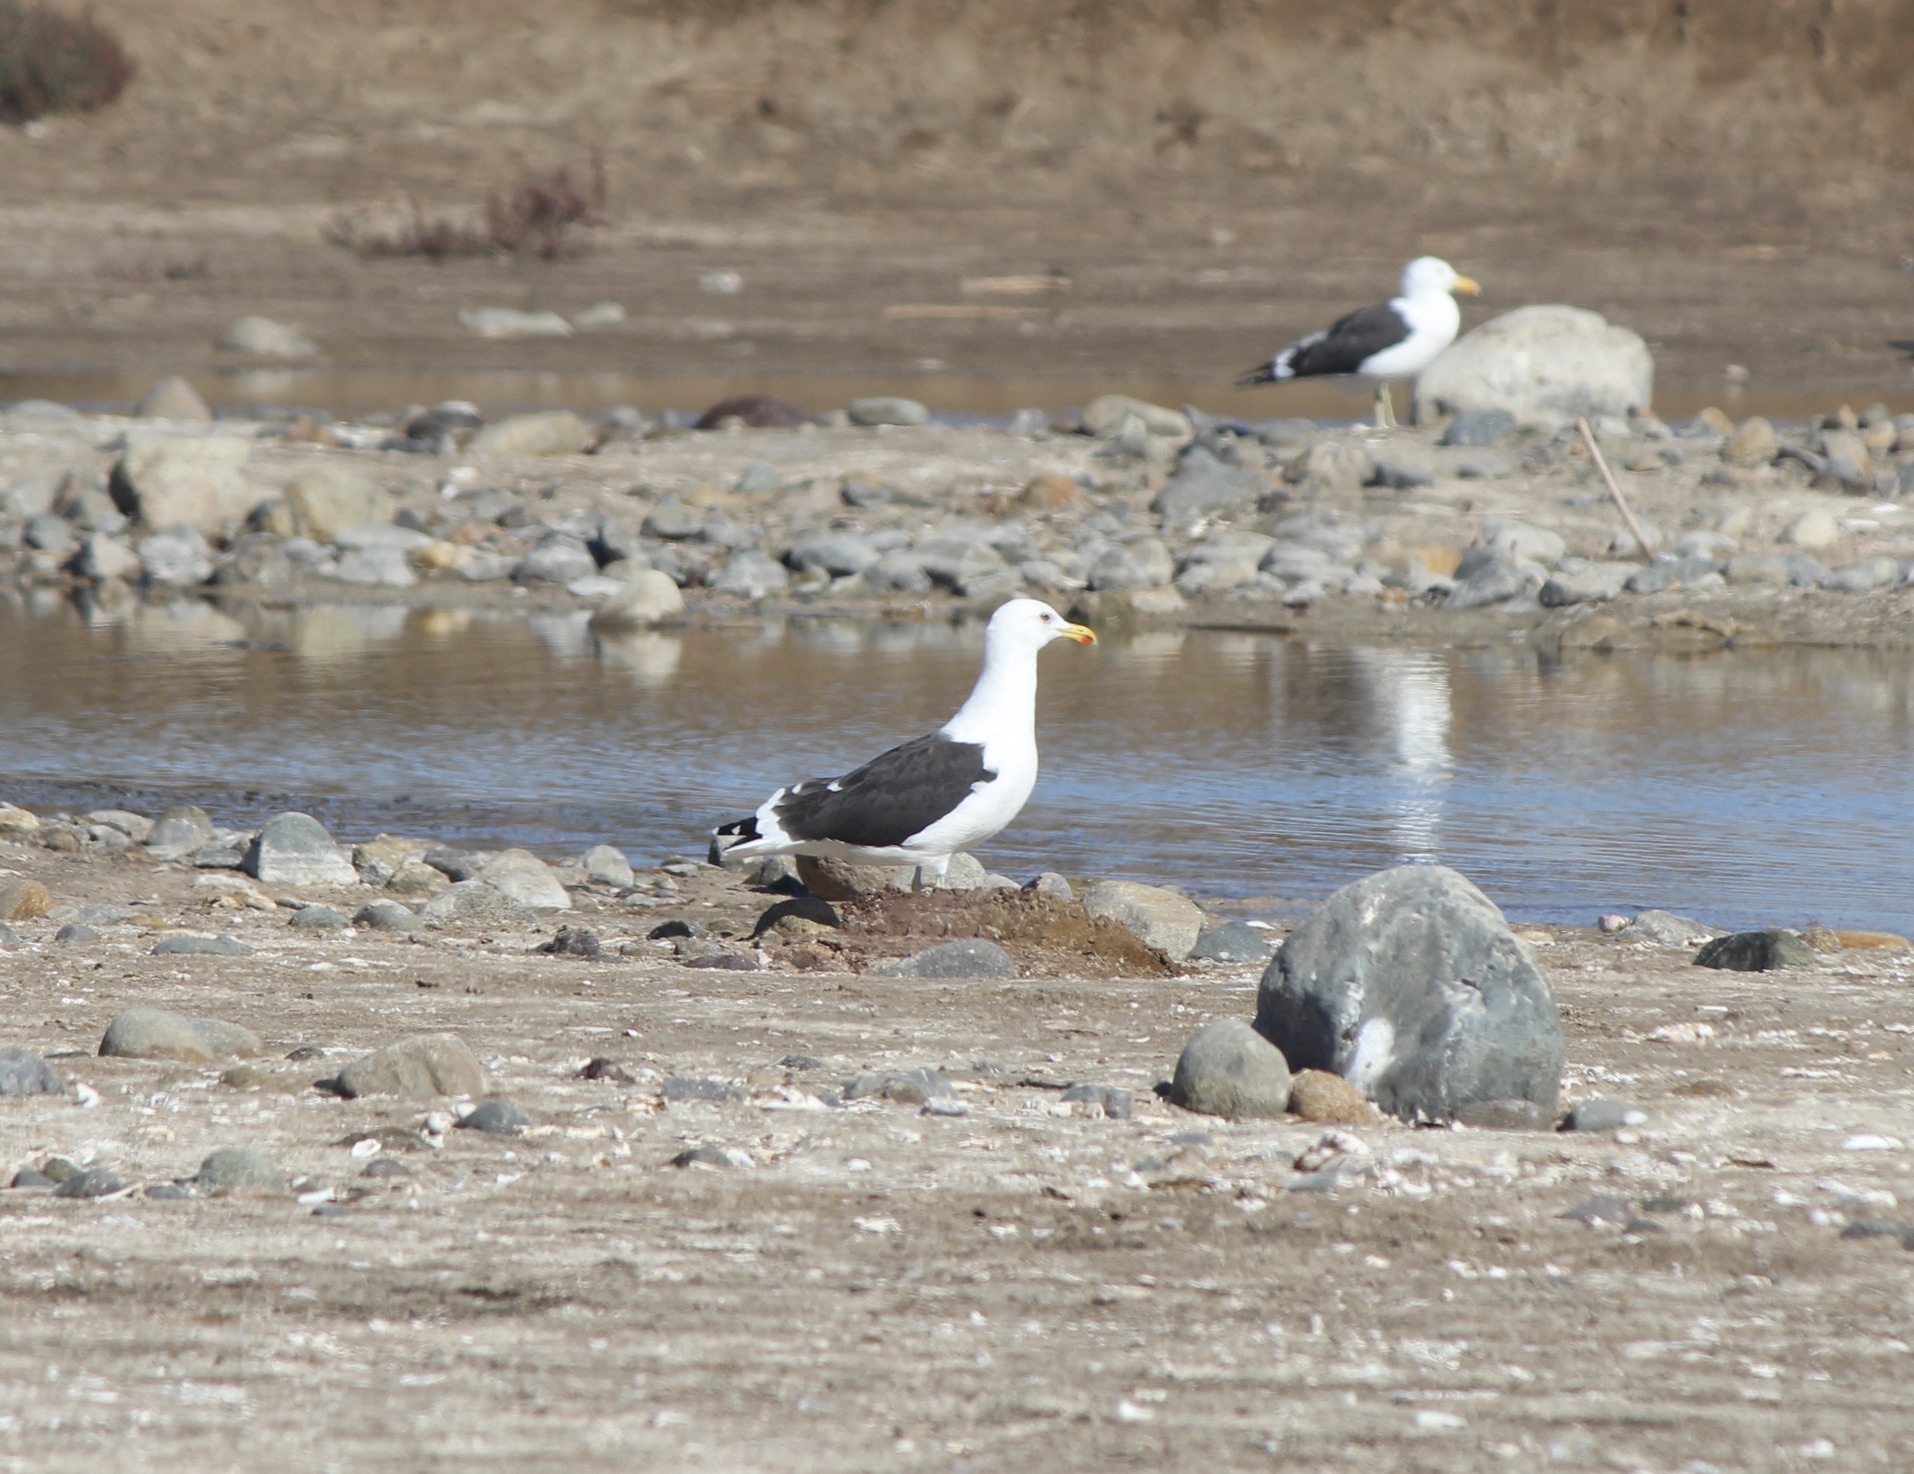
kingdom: Animalia
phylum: Chordata
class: Aves
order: Charadriiformes
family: Laridae
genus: Larus
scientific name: Larus dominicanus
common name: Kelp gull
